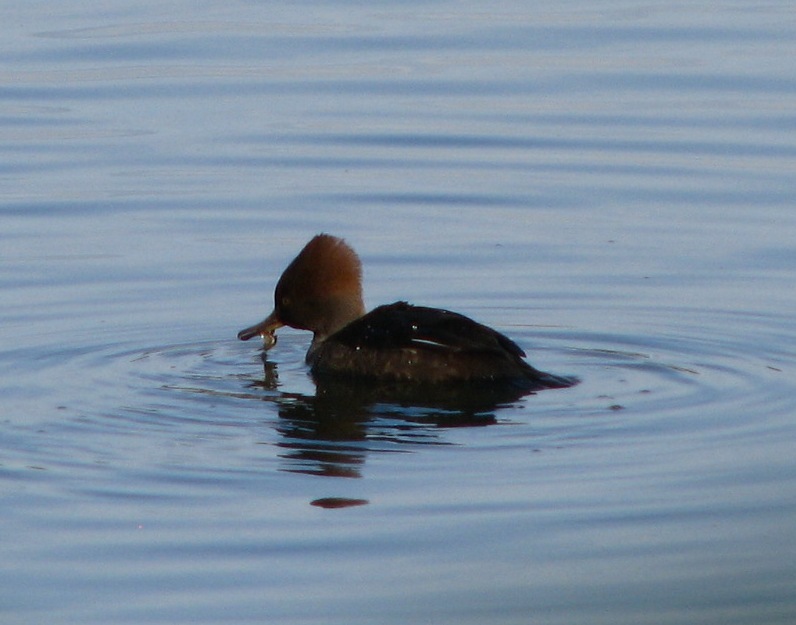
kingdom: Animalia
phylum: Chordata
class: Aves
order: Anseriformes
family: Anatidae
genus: Lophodytes
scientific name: Lophodytes cucullatus
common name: Hooded merganser
